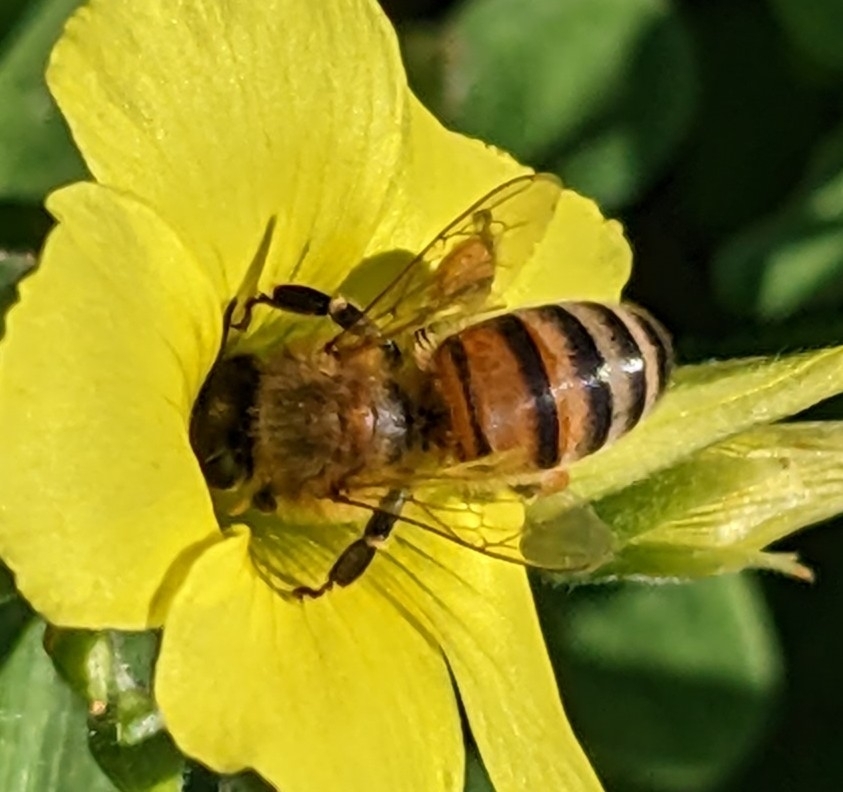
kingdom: Animalia
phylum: Arthropoda
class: Insecta
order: Hymenoptera
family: Apidae
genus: Apis
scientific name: Apis mellifera
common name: Honey bee
